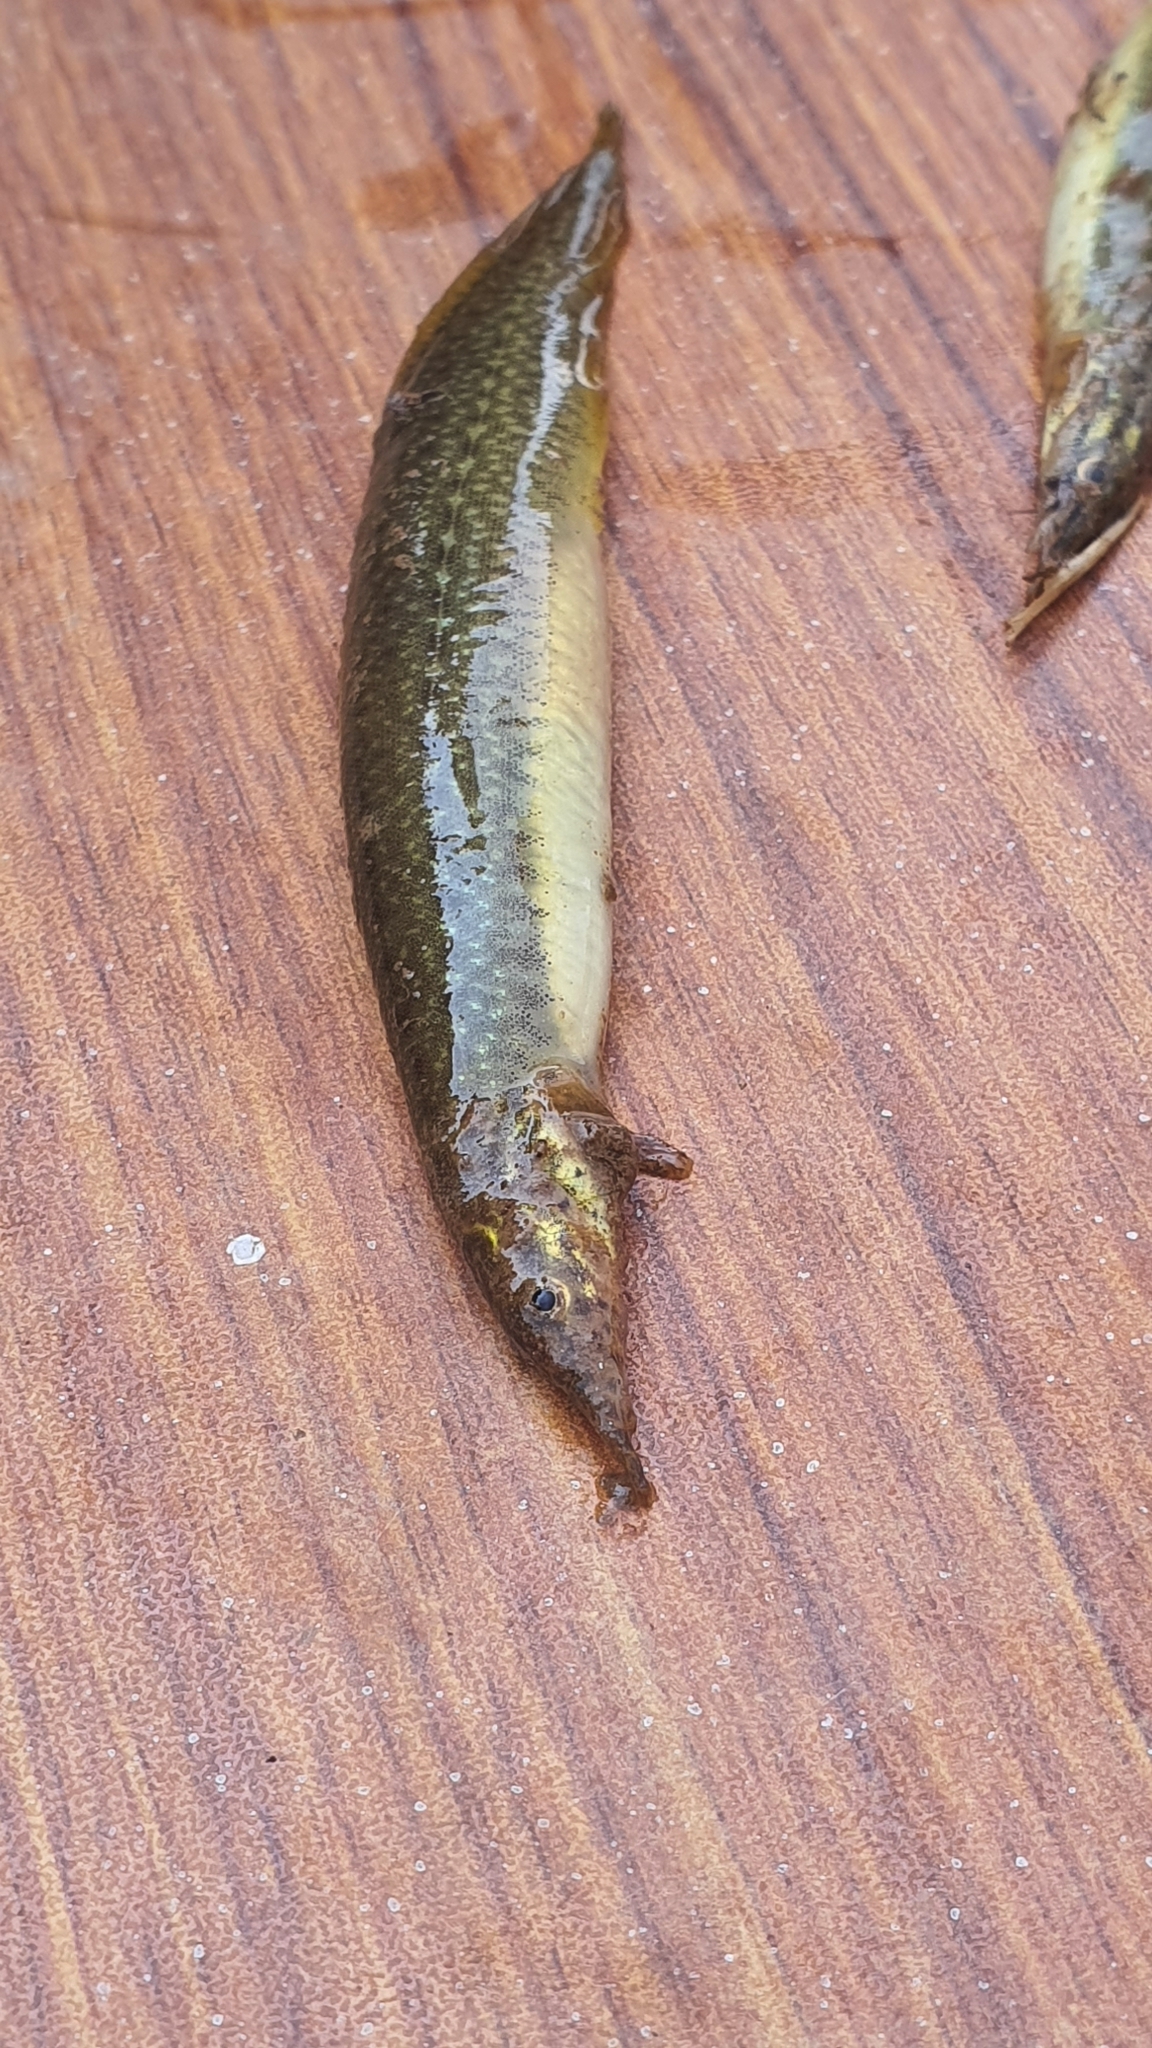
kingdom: Animalia
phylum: Chordata
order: Synbranchiformes
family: Mastacembelidae
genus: Macrognathus
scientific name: Macrognathus pancalus
